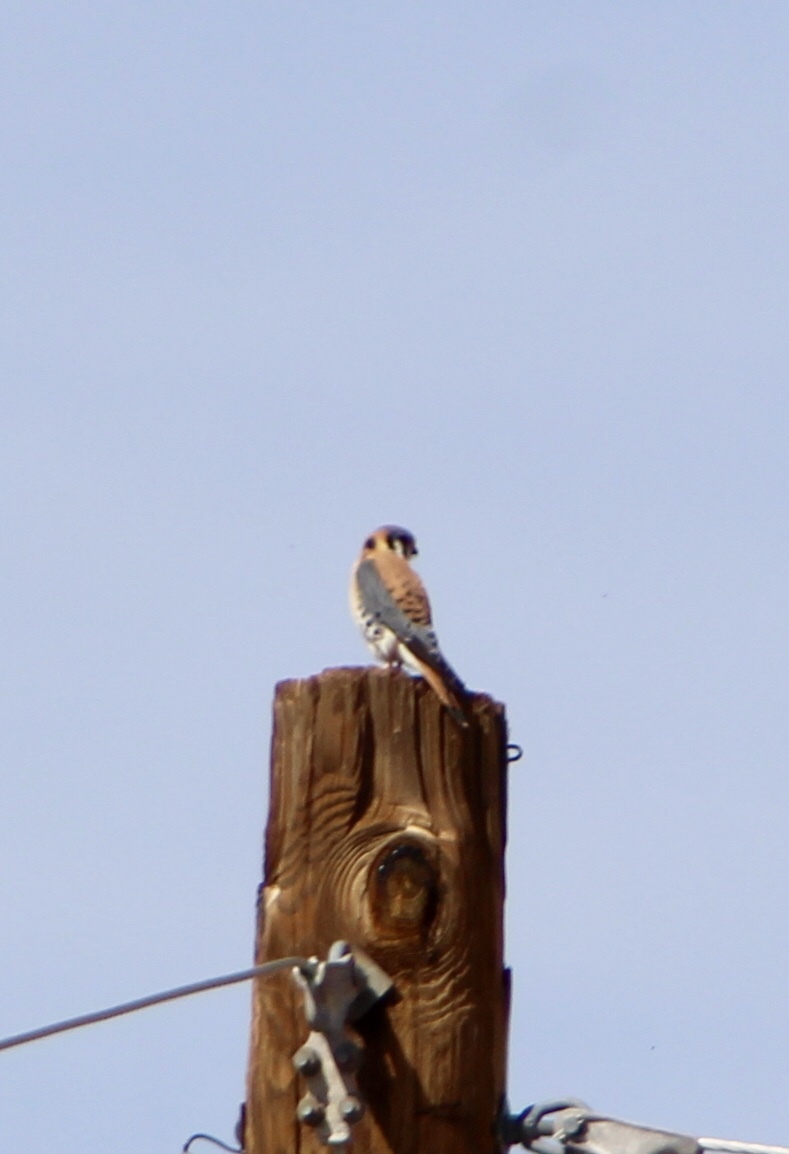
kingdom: Animalia
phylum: Chordata
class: Aves
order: Falconiformes
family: Falconidae
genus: Falco
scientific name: Falco sparverius
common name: American kestrel
